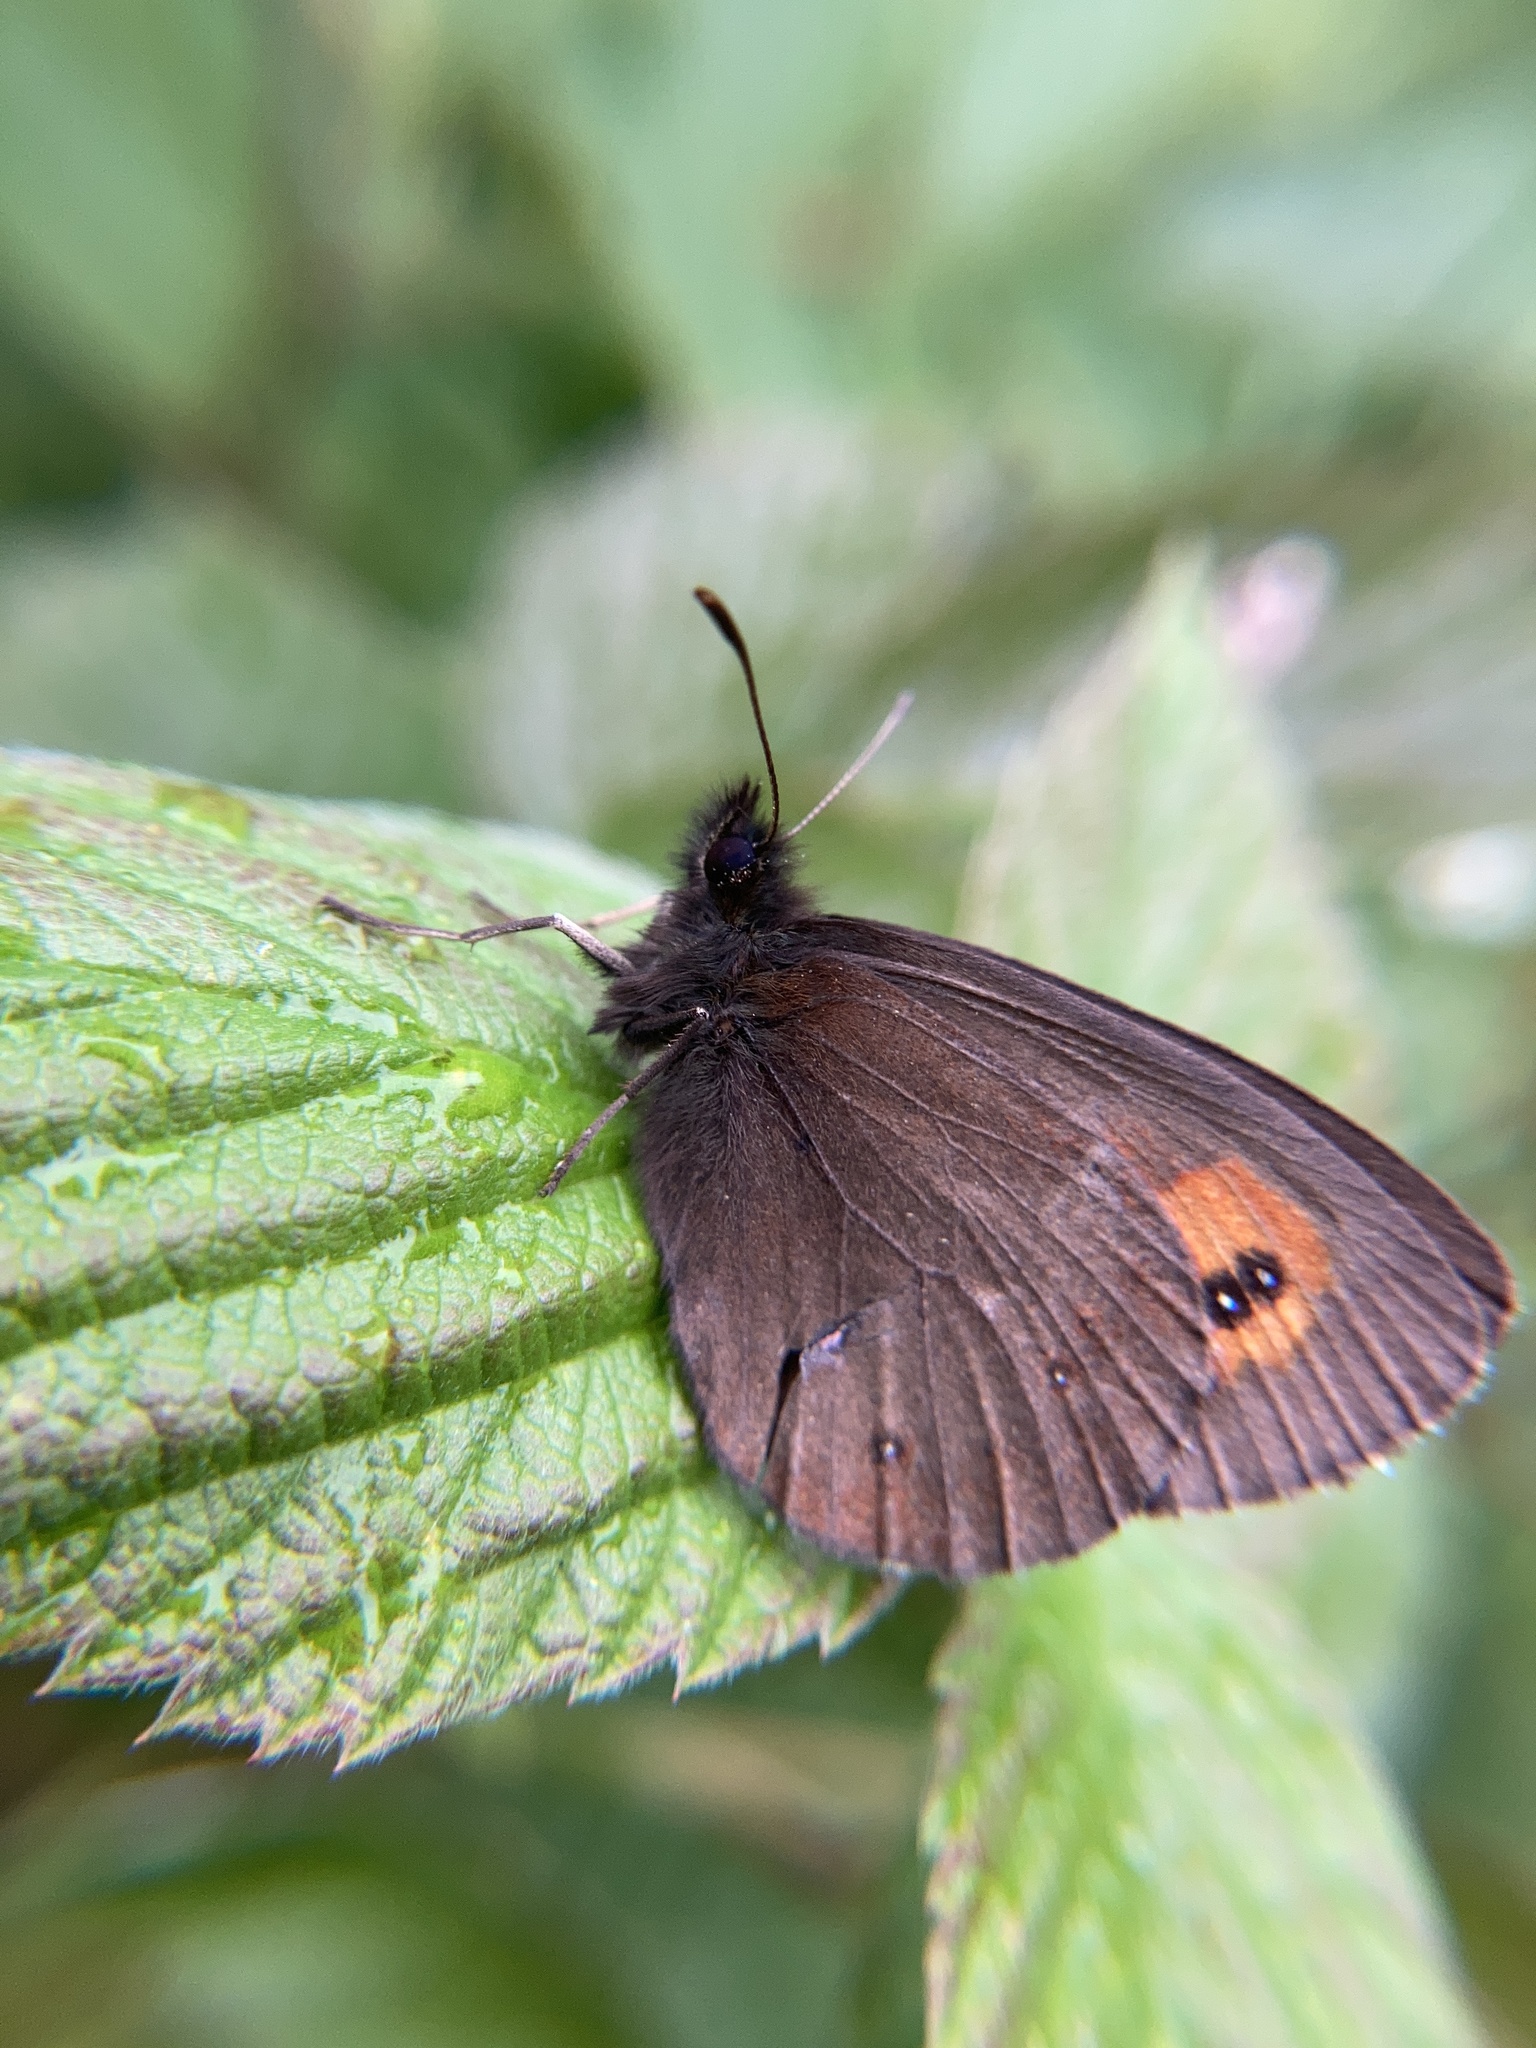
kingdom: Animalia
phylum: Arthropoda
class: Insecta
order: Lepidoptera
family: Nymphalidae
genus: Erebia
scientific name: Erebia euryale
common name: Large ringlet
